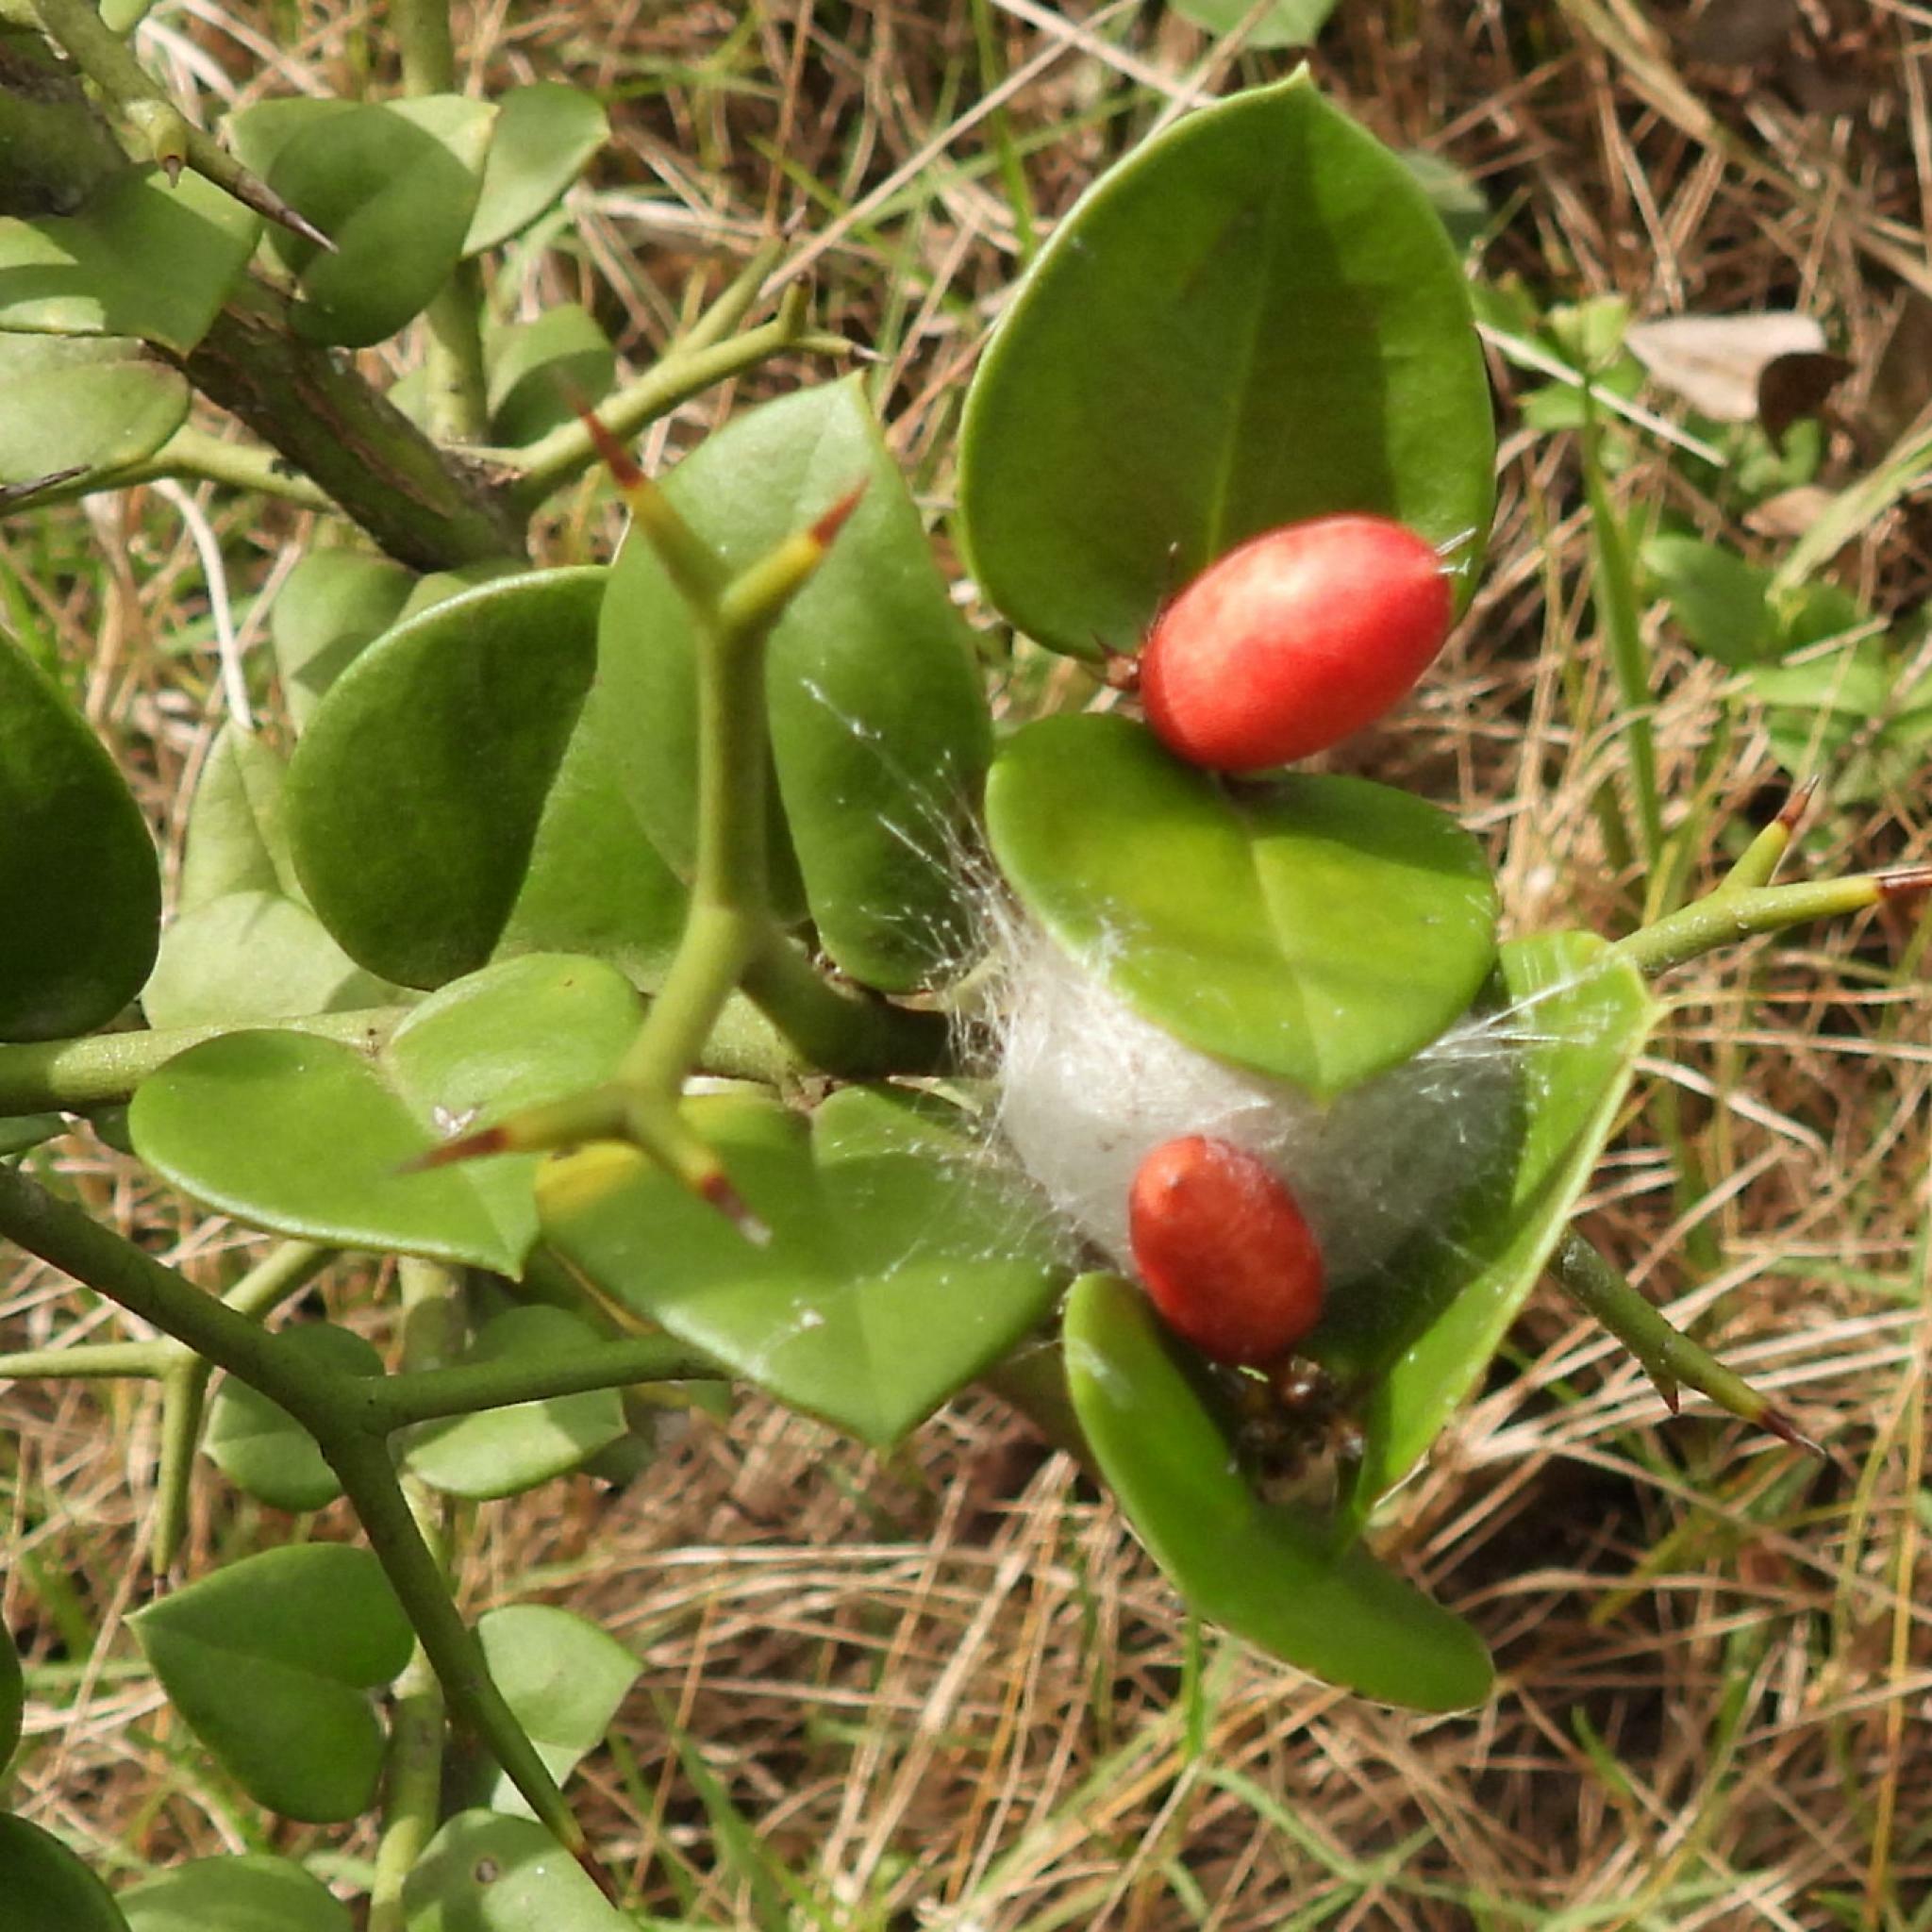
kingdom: Plantae
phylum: Tracheophyta
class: Magnoliopsida
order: Gentianales
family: Apocynaceae
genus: Carissa
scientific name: Carissa bispinosa
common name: Forest num-num
